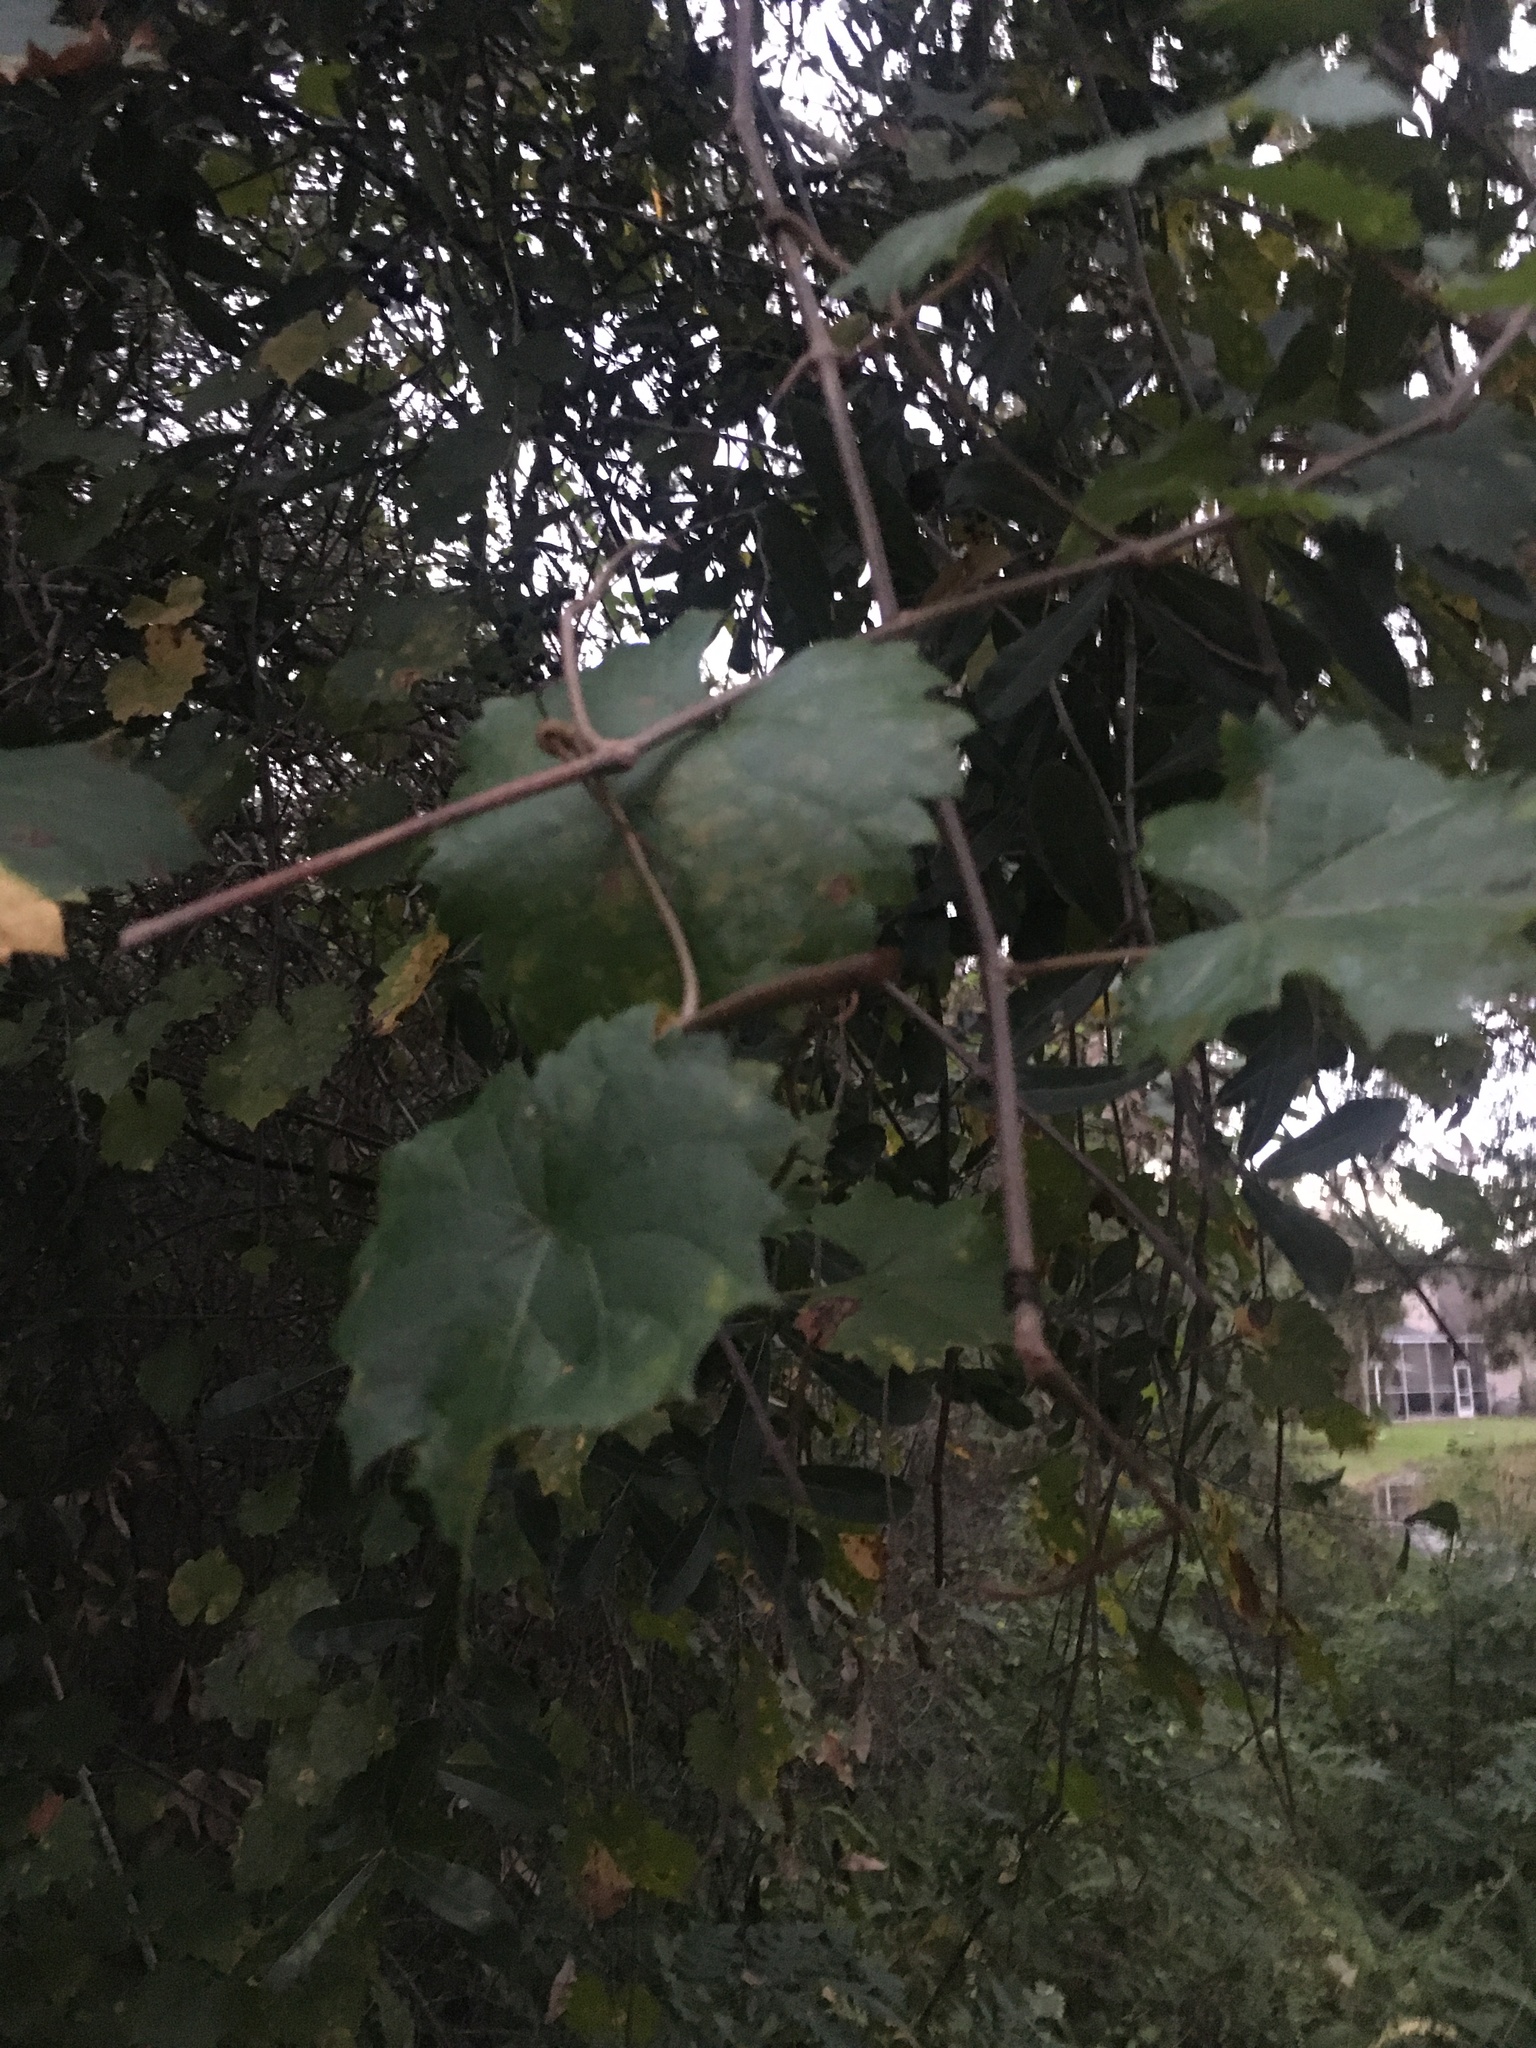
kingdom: Plantae
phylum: Tracheophyta
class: Magnoliopsida
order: Vitales
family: Vitaceae
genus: Vitis
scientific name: Vitis rotundifolia
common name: Muscadine grape
